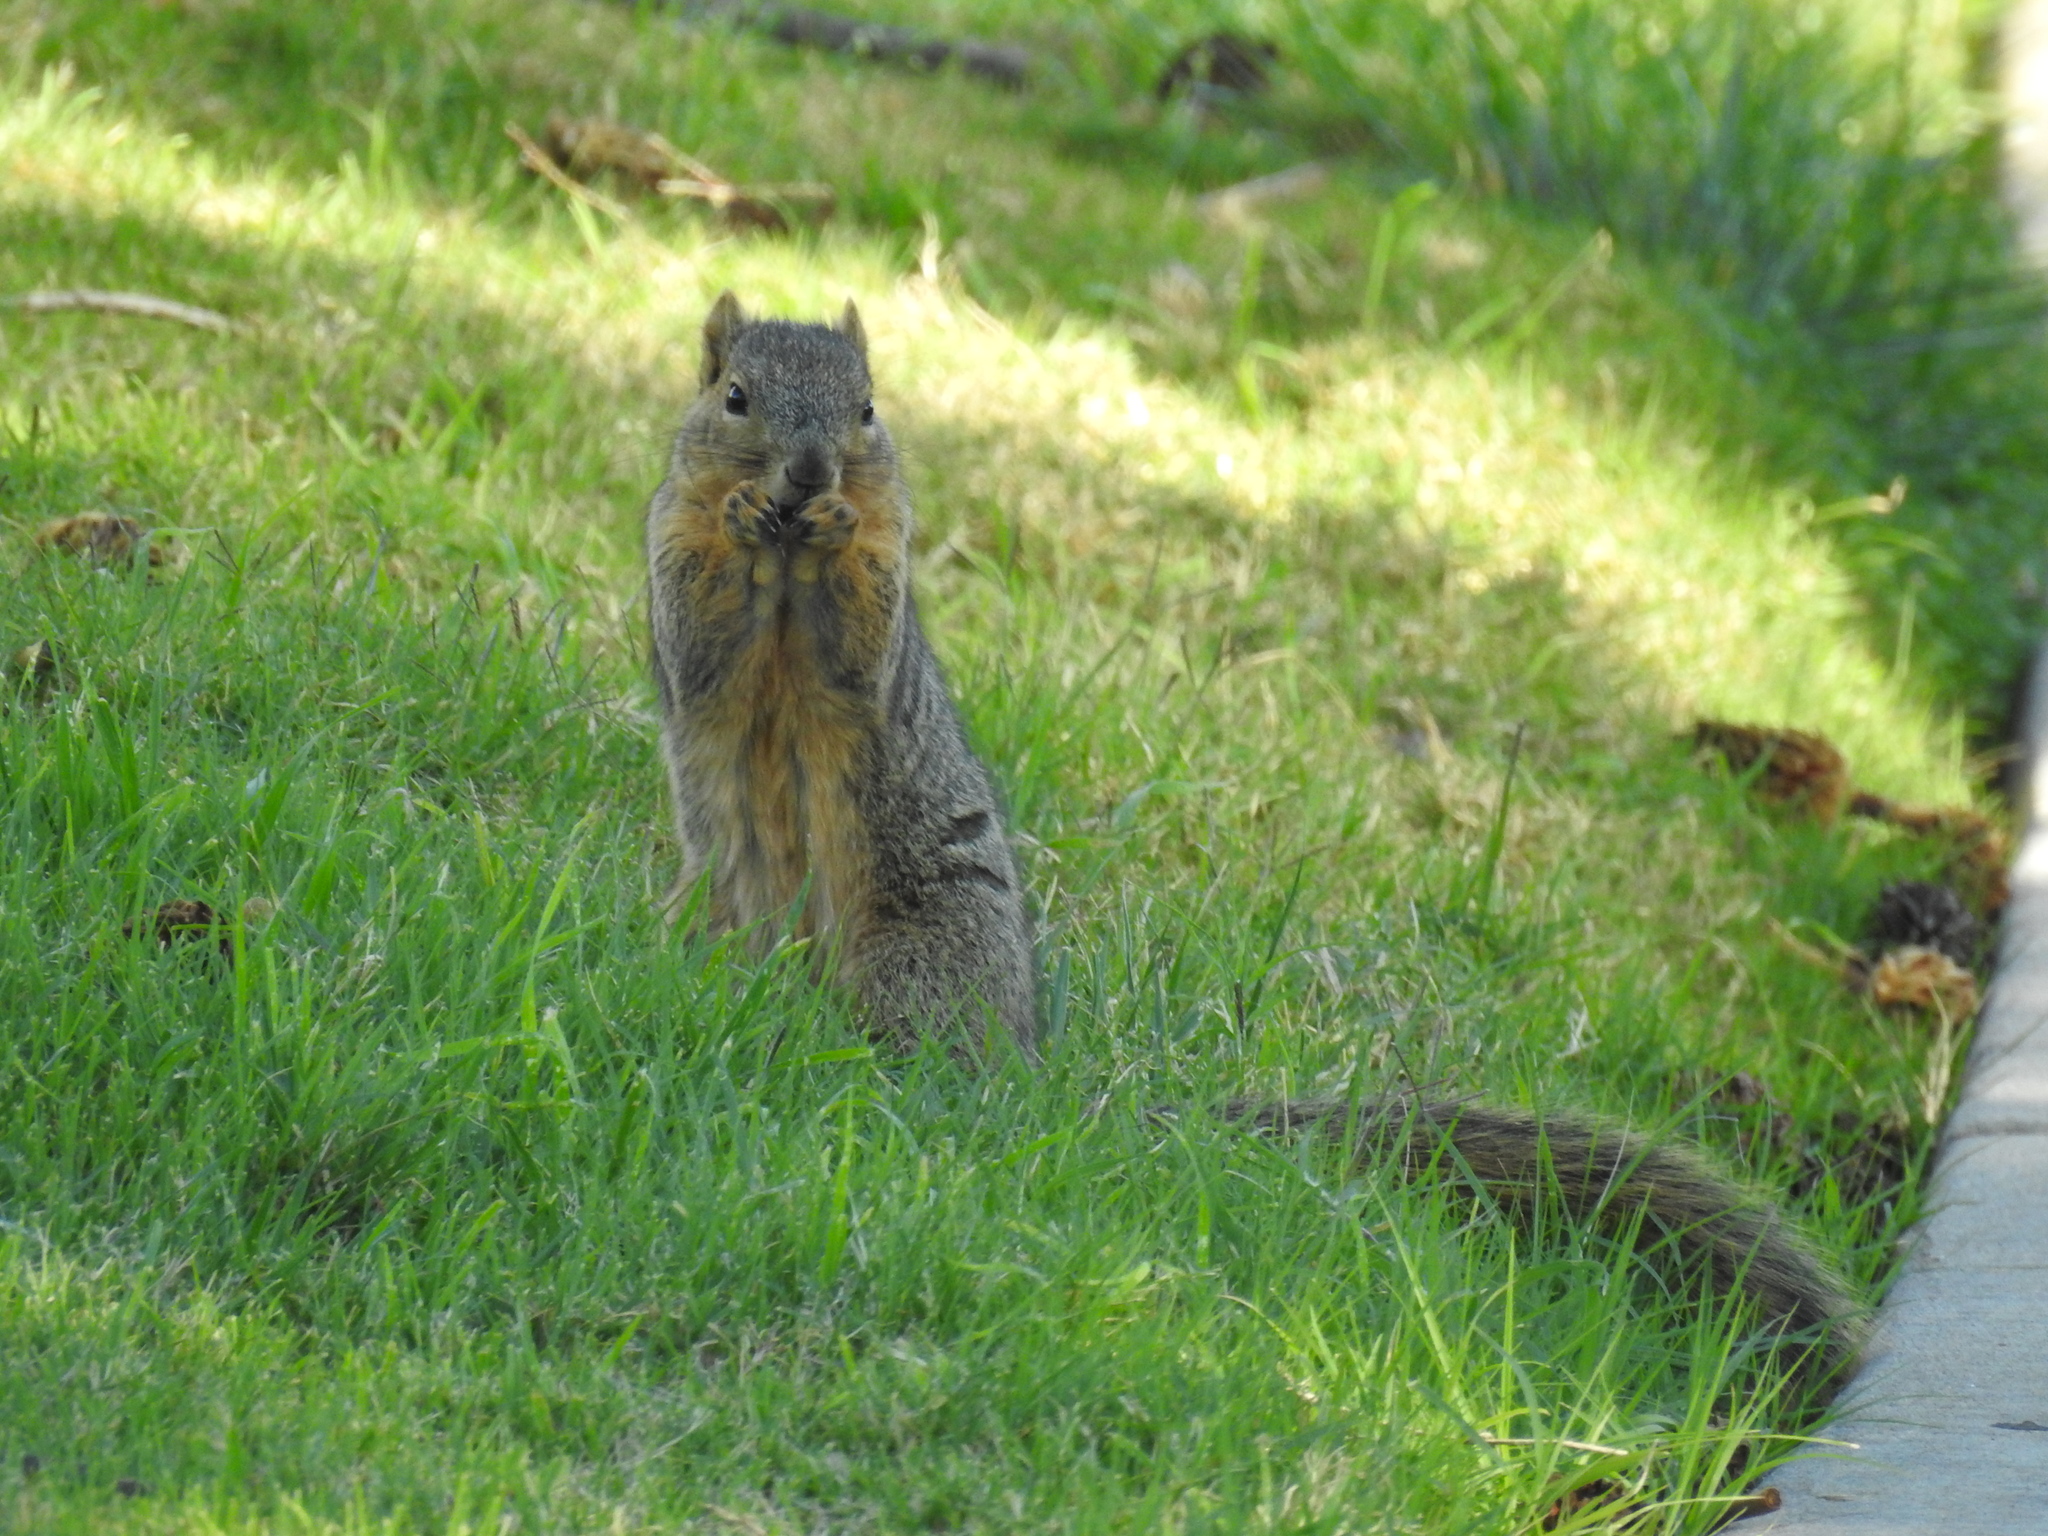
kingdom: Animalia
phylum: Chordata
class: Mammalia
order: Rodentia
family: Sciuridae
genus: Sciurus
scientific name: Sciurus niger
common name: Fox squirrel
